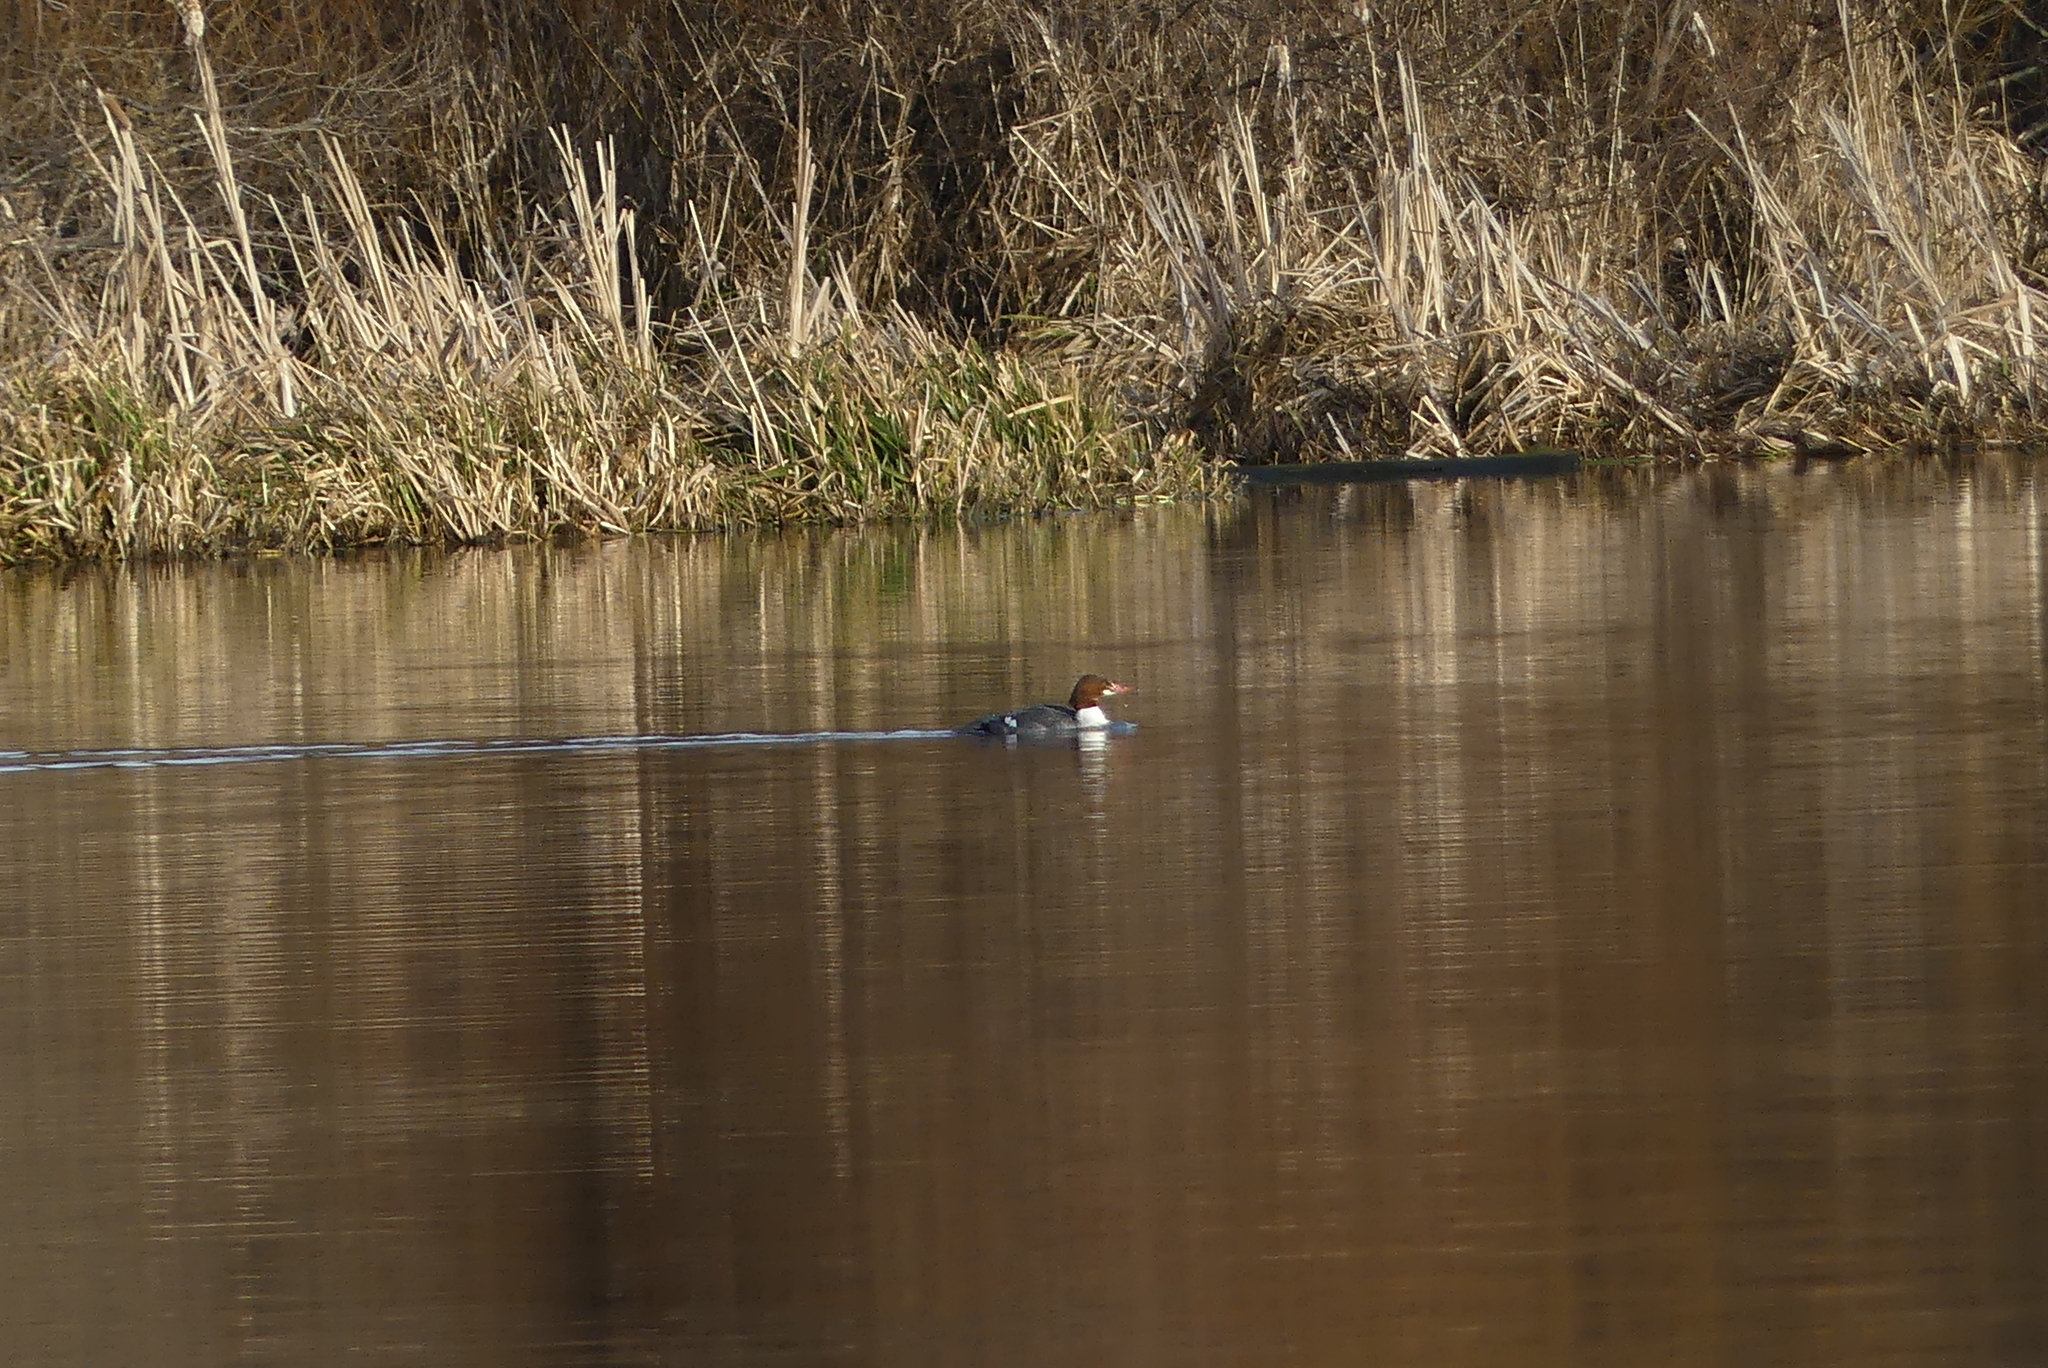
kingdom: Animalia
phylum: Chordata
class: Aves
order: Anseriformes
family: Anatidae
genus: Mergus
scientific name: Mergus merganser
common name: Common merganser
